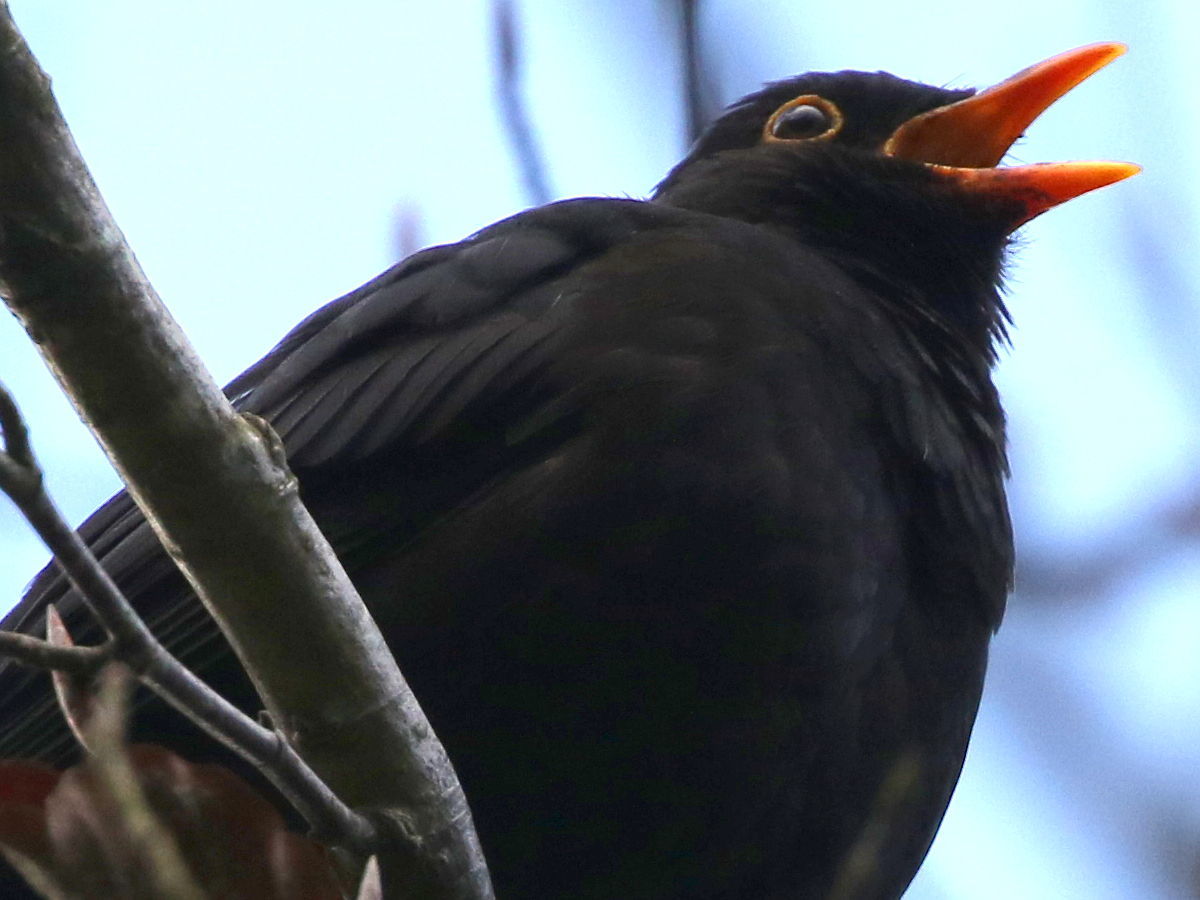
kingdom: Animalia
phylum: Chordata
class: Aves
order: Passeriformes
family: Turdidae
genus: Turdus
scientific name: Turdus merula
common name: Common blackbird
